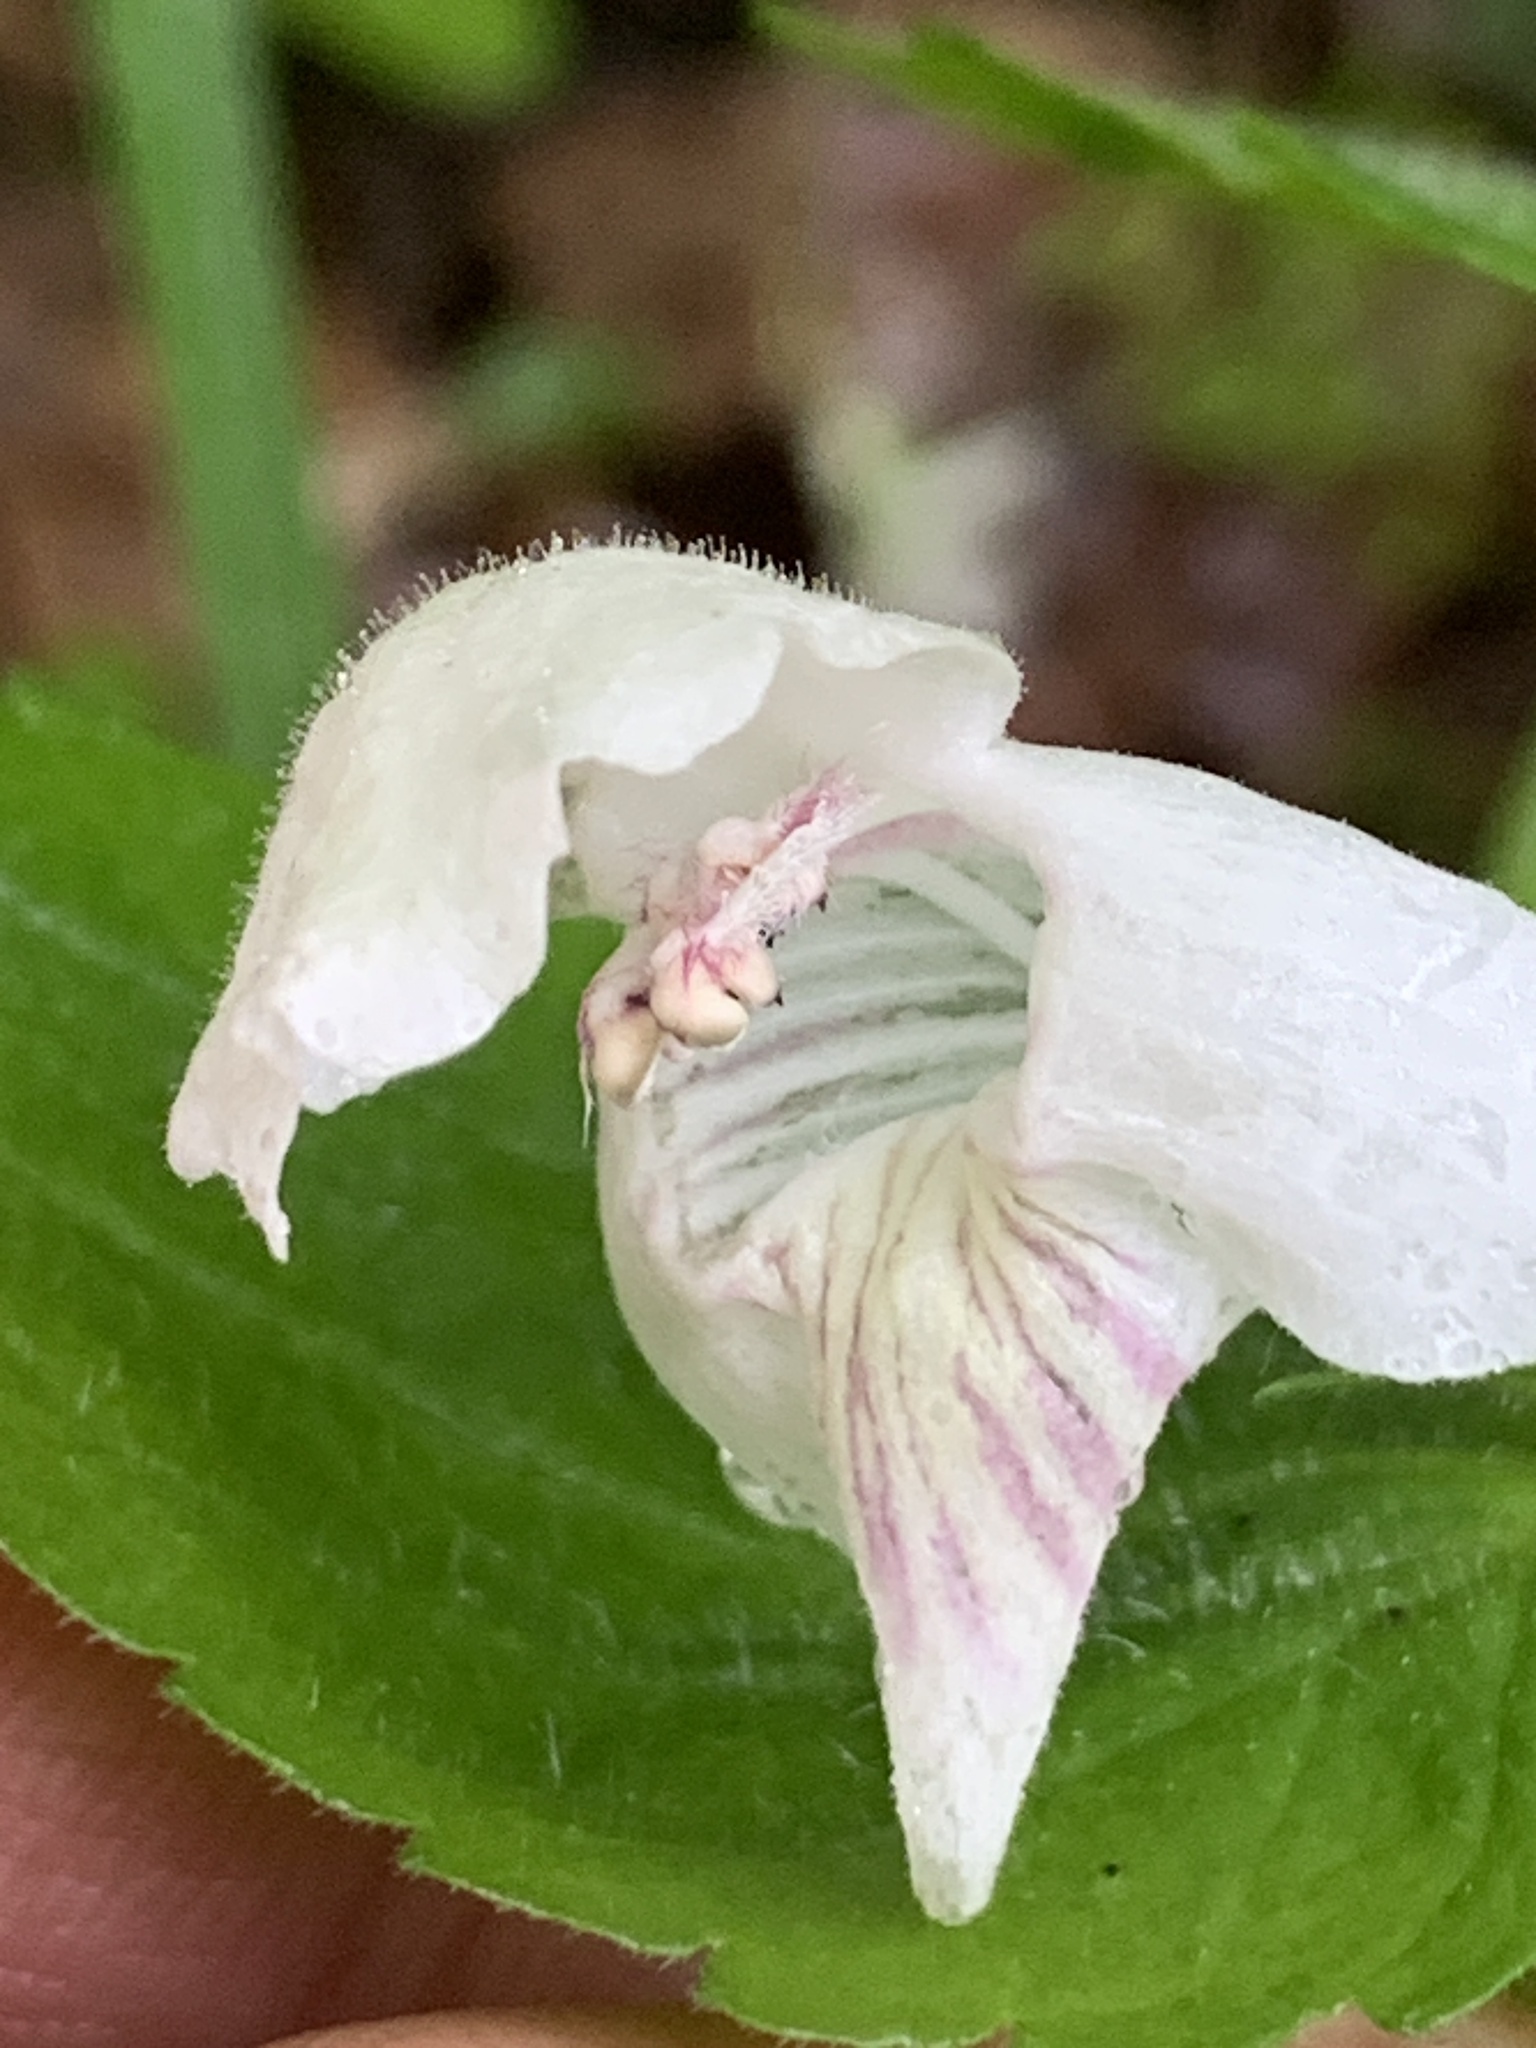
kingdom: Plantae
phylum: Tracheophyta
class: Magnoliopsida
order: Lamiales
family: Lamiaceae
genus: Synandra
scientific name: Synandra hispidula
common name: Synandra
